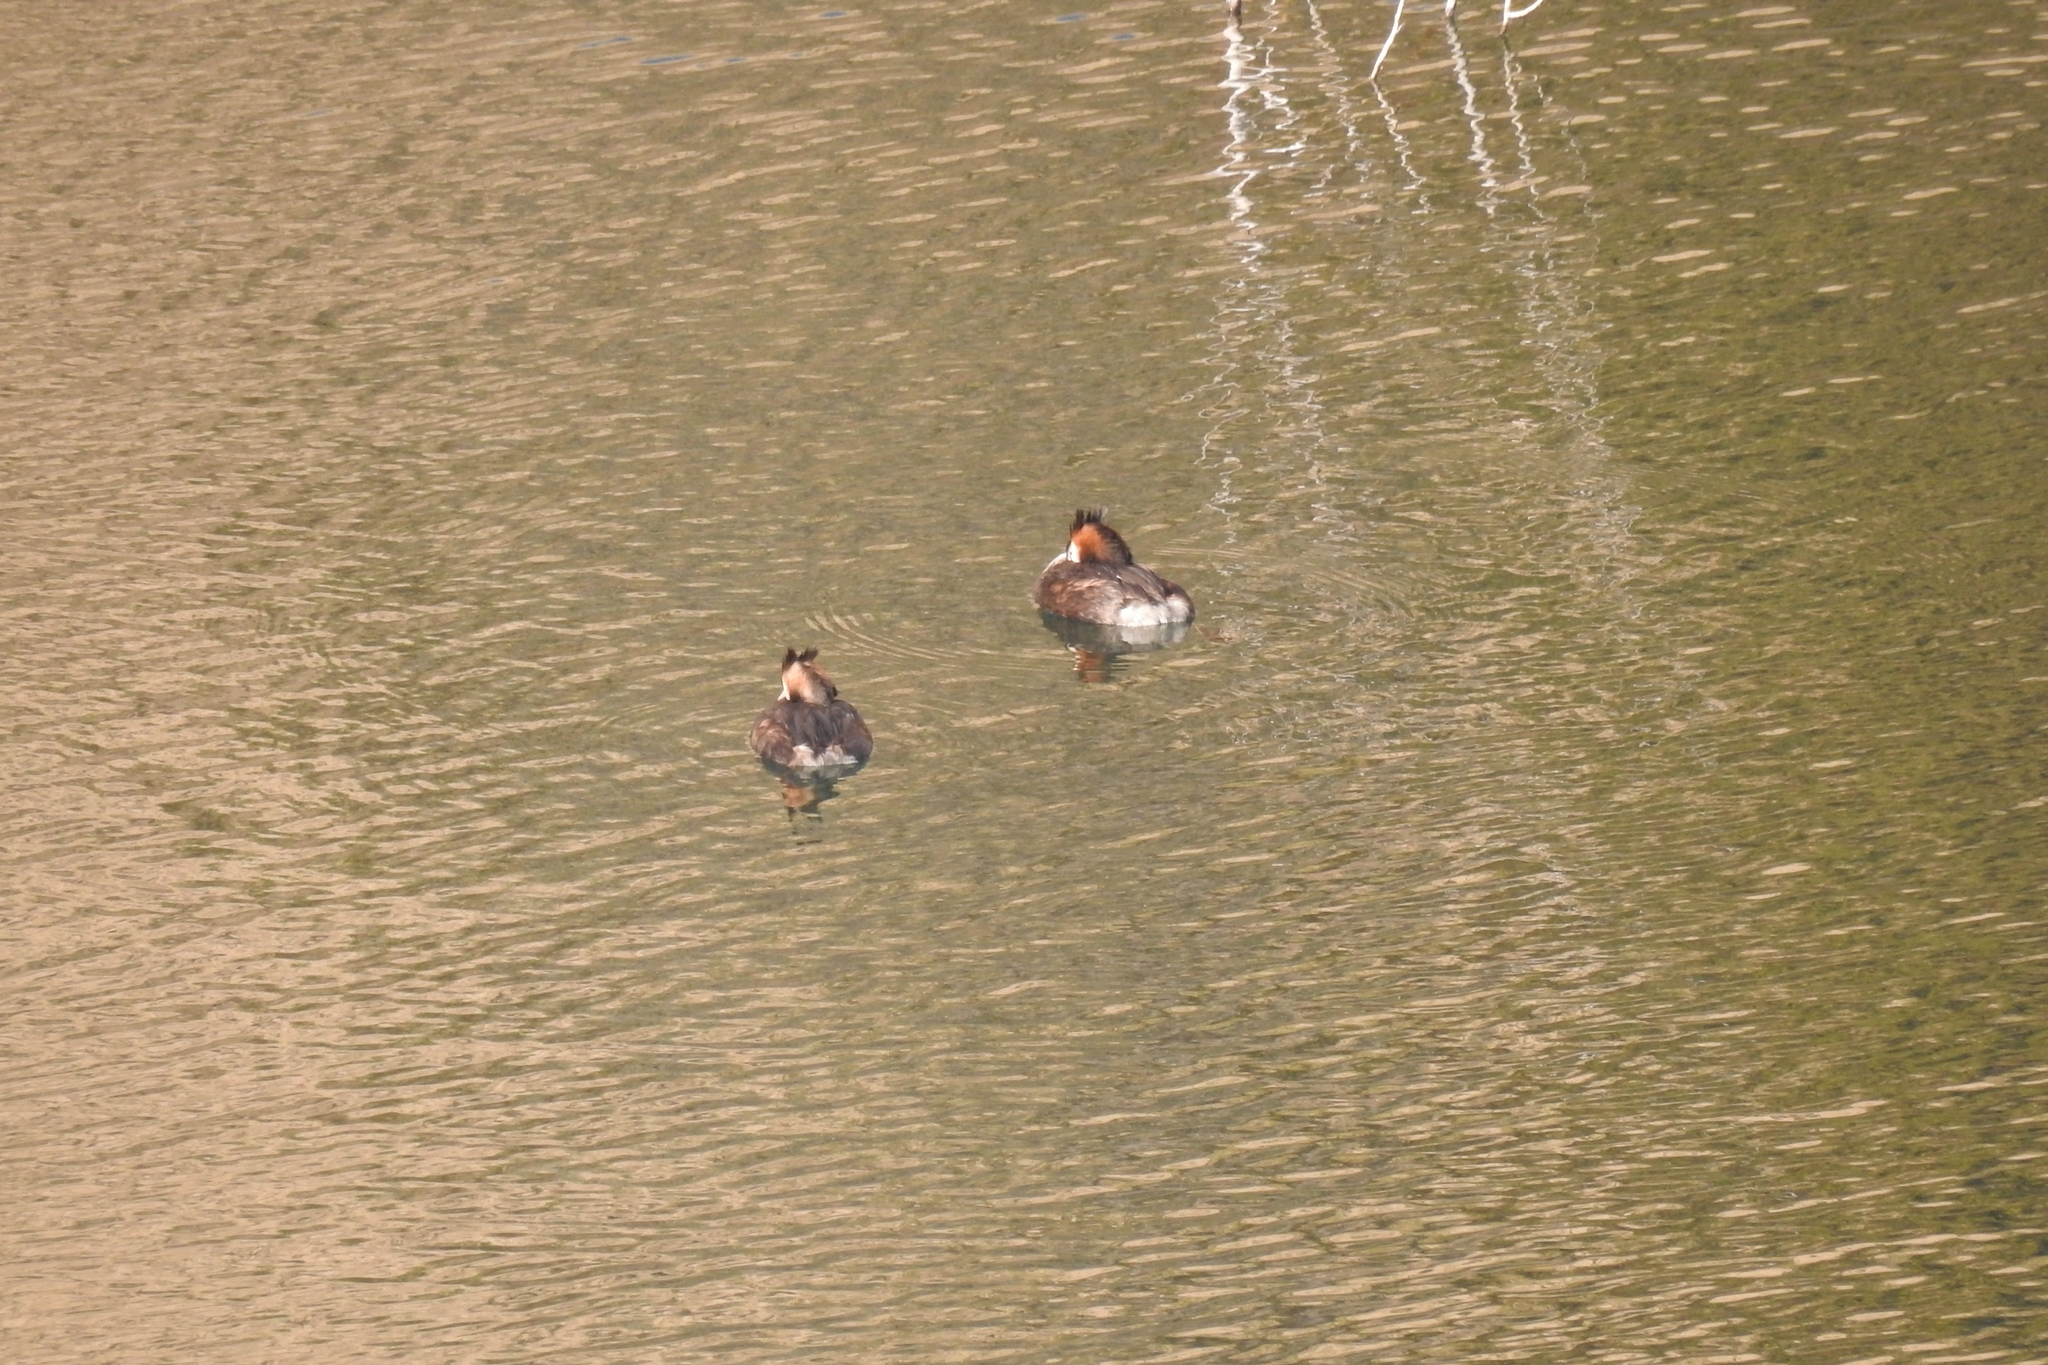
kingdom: Animalia
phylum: Chordata
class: Aves
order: Podicipediformes
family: Podicipedidae
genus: Podiceps
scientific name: Podiceps cristatus
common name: Great crested grebe
